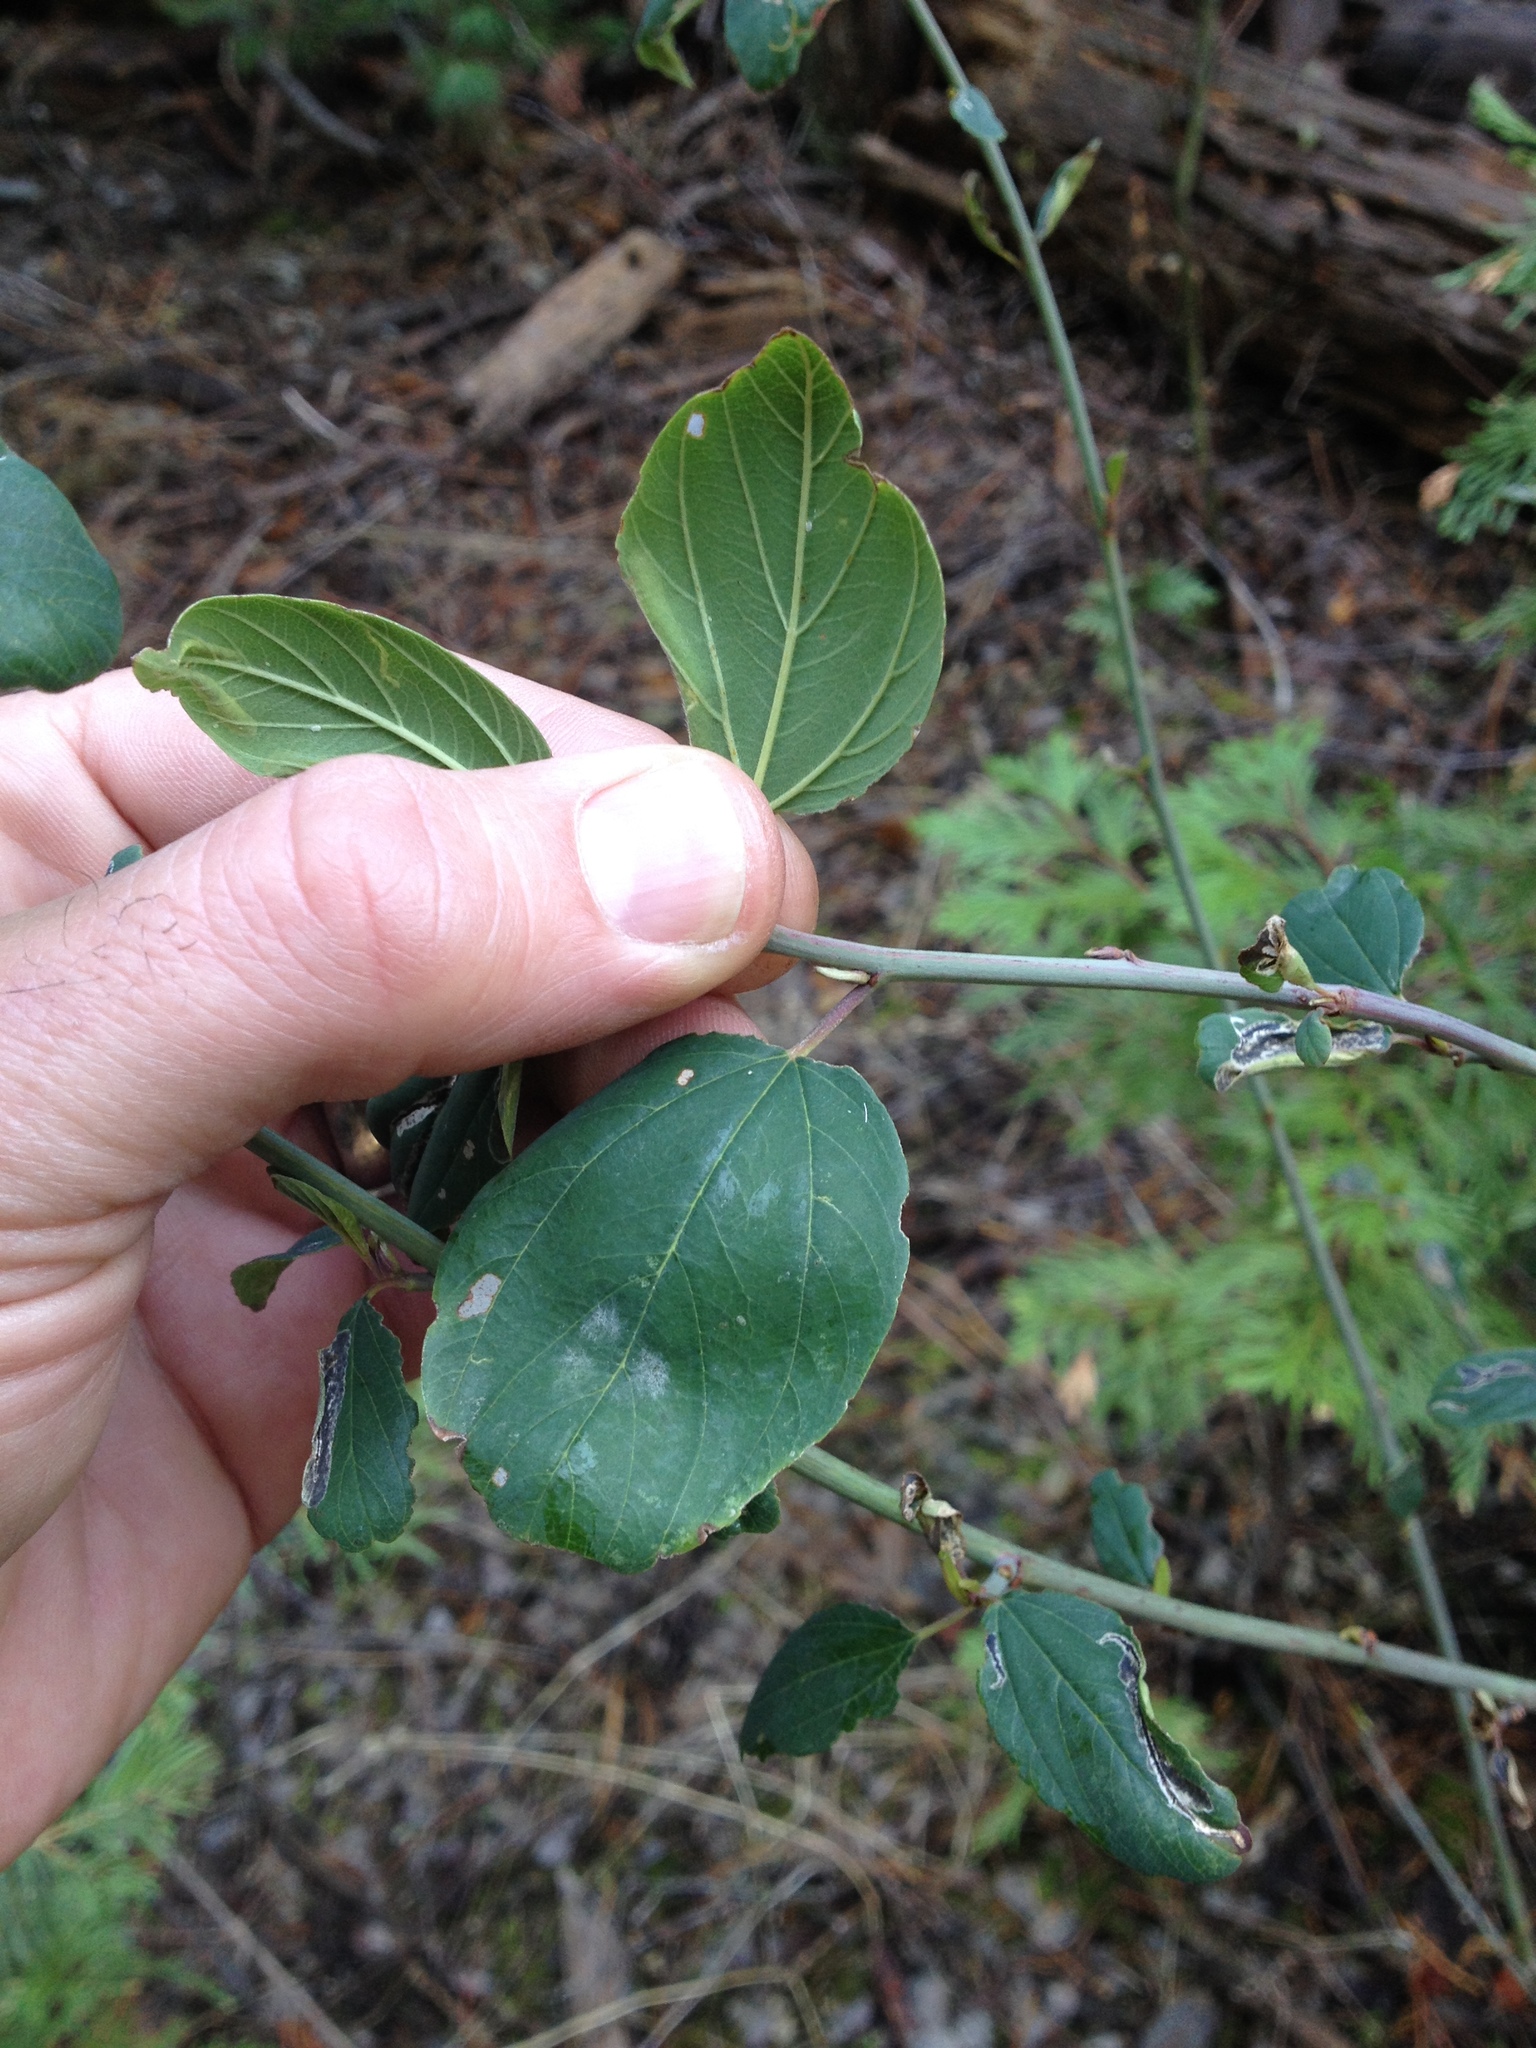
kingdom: Plantae
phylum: Tracheophyta
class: Magnoliopsida
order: Rosales
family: Rhamnaceae
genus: Ceanothus
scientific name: Ceanothus integerrimus
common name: Deerbrush ceanothus
